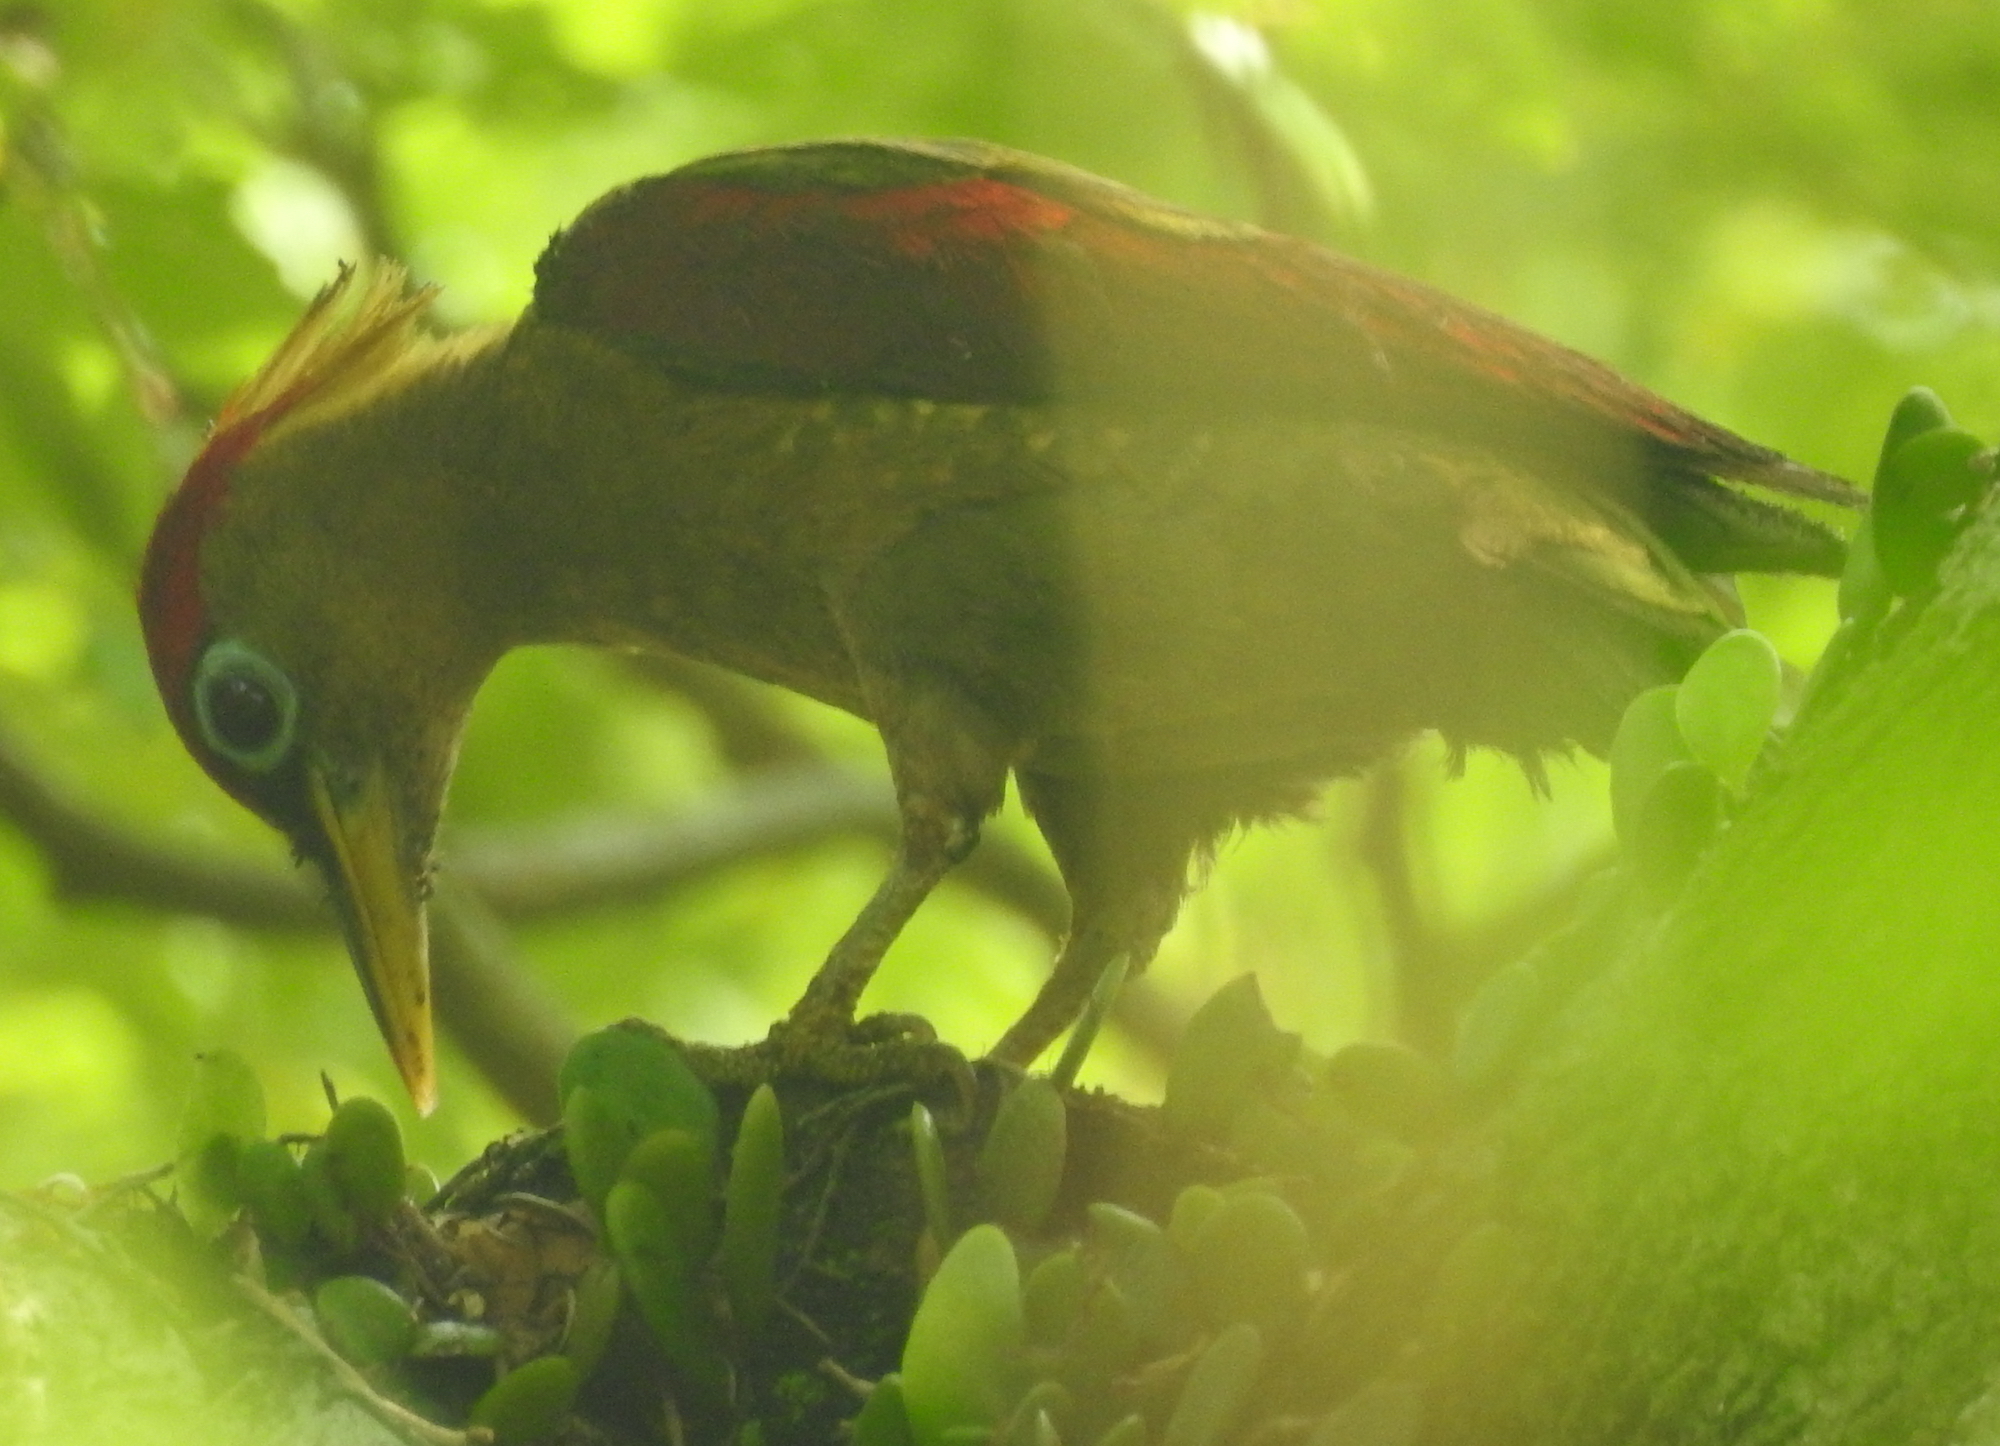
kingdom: Animalia
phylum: Chordata
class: Aves
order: Piciformes
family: Picidae
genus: Picus
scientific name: Picus puniceus
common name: Crimson-winged woodpecker
